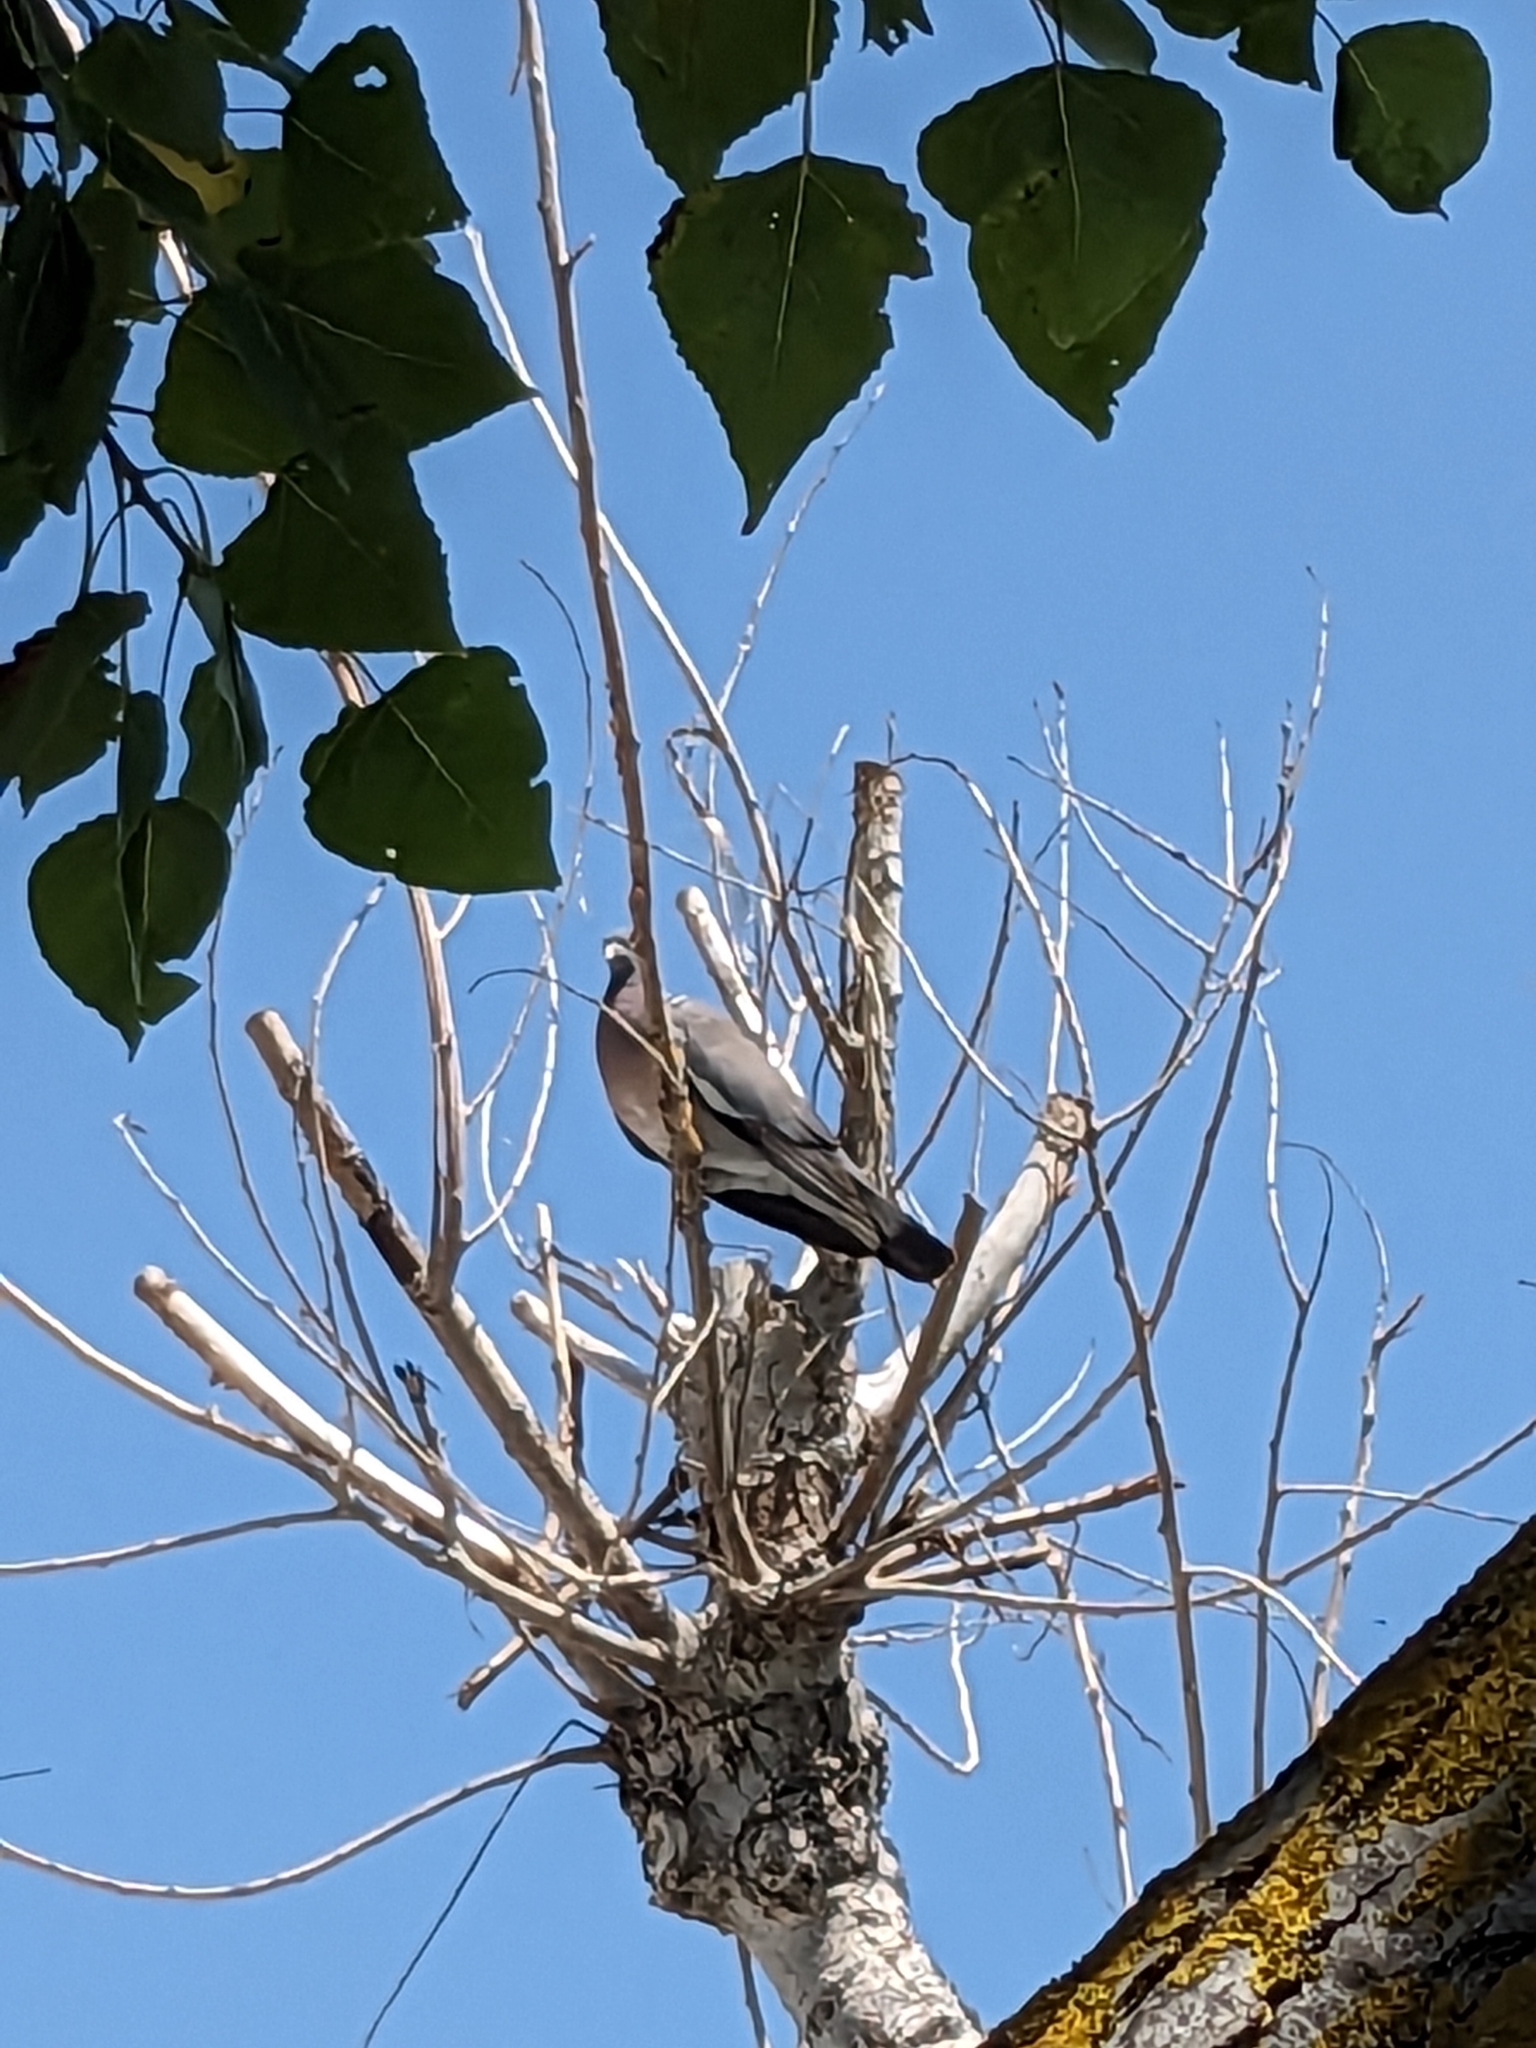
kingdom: Animalia
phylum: Chordata
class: Aves
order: Columbiformes
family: Columbidae
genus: Columba
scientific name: Columba palumbus
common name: Common wood pigeon
